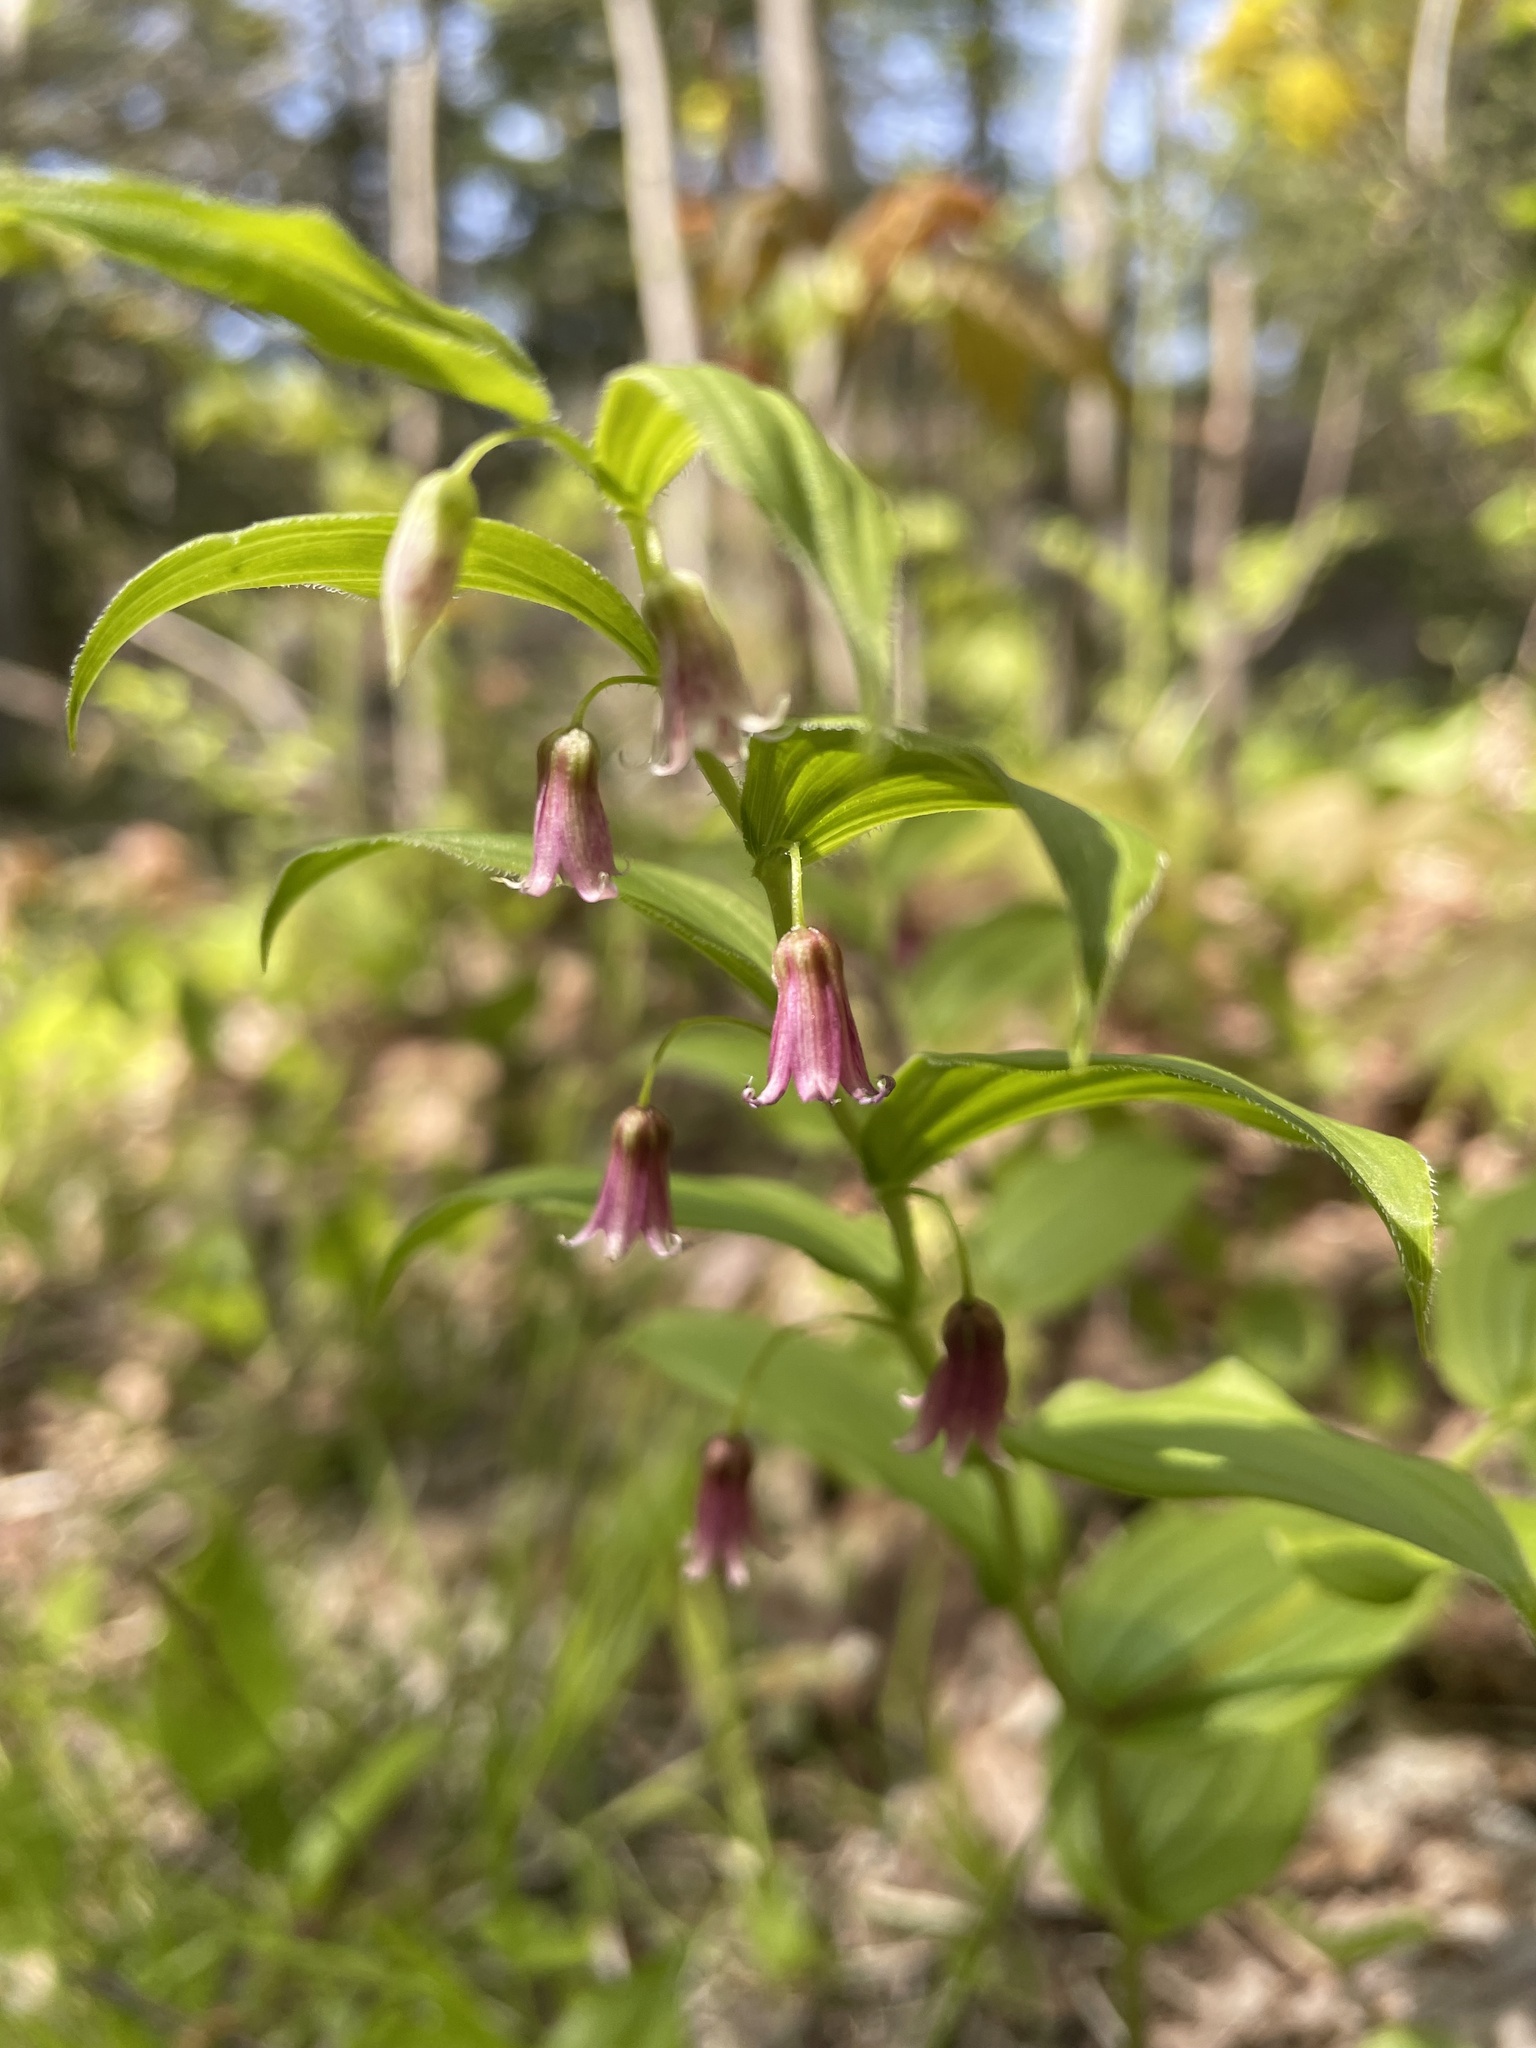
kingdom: Plantae
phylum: Tracheophyta
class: Liliopsida
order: Liliales
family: Liliaceae
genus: Streptopus
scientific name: Streptopus lanceolatus
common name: Rose mandarin
